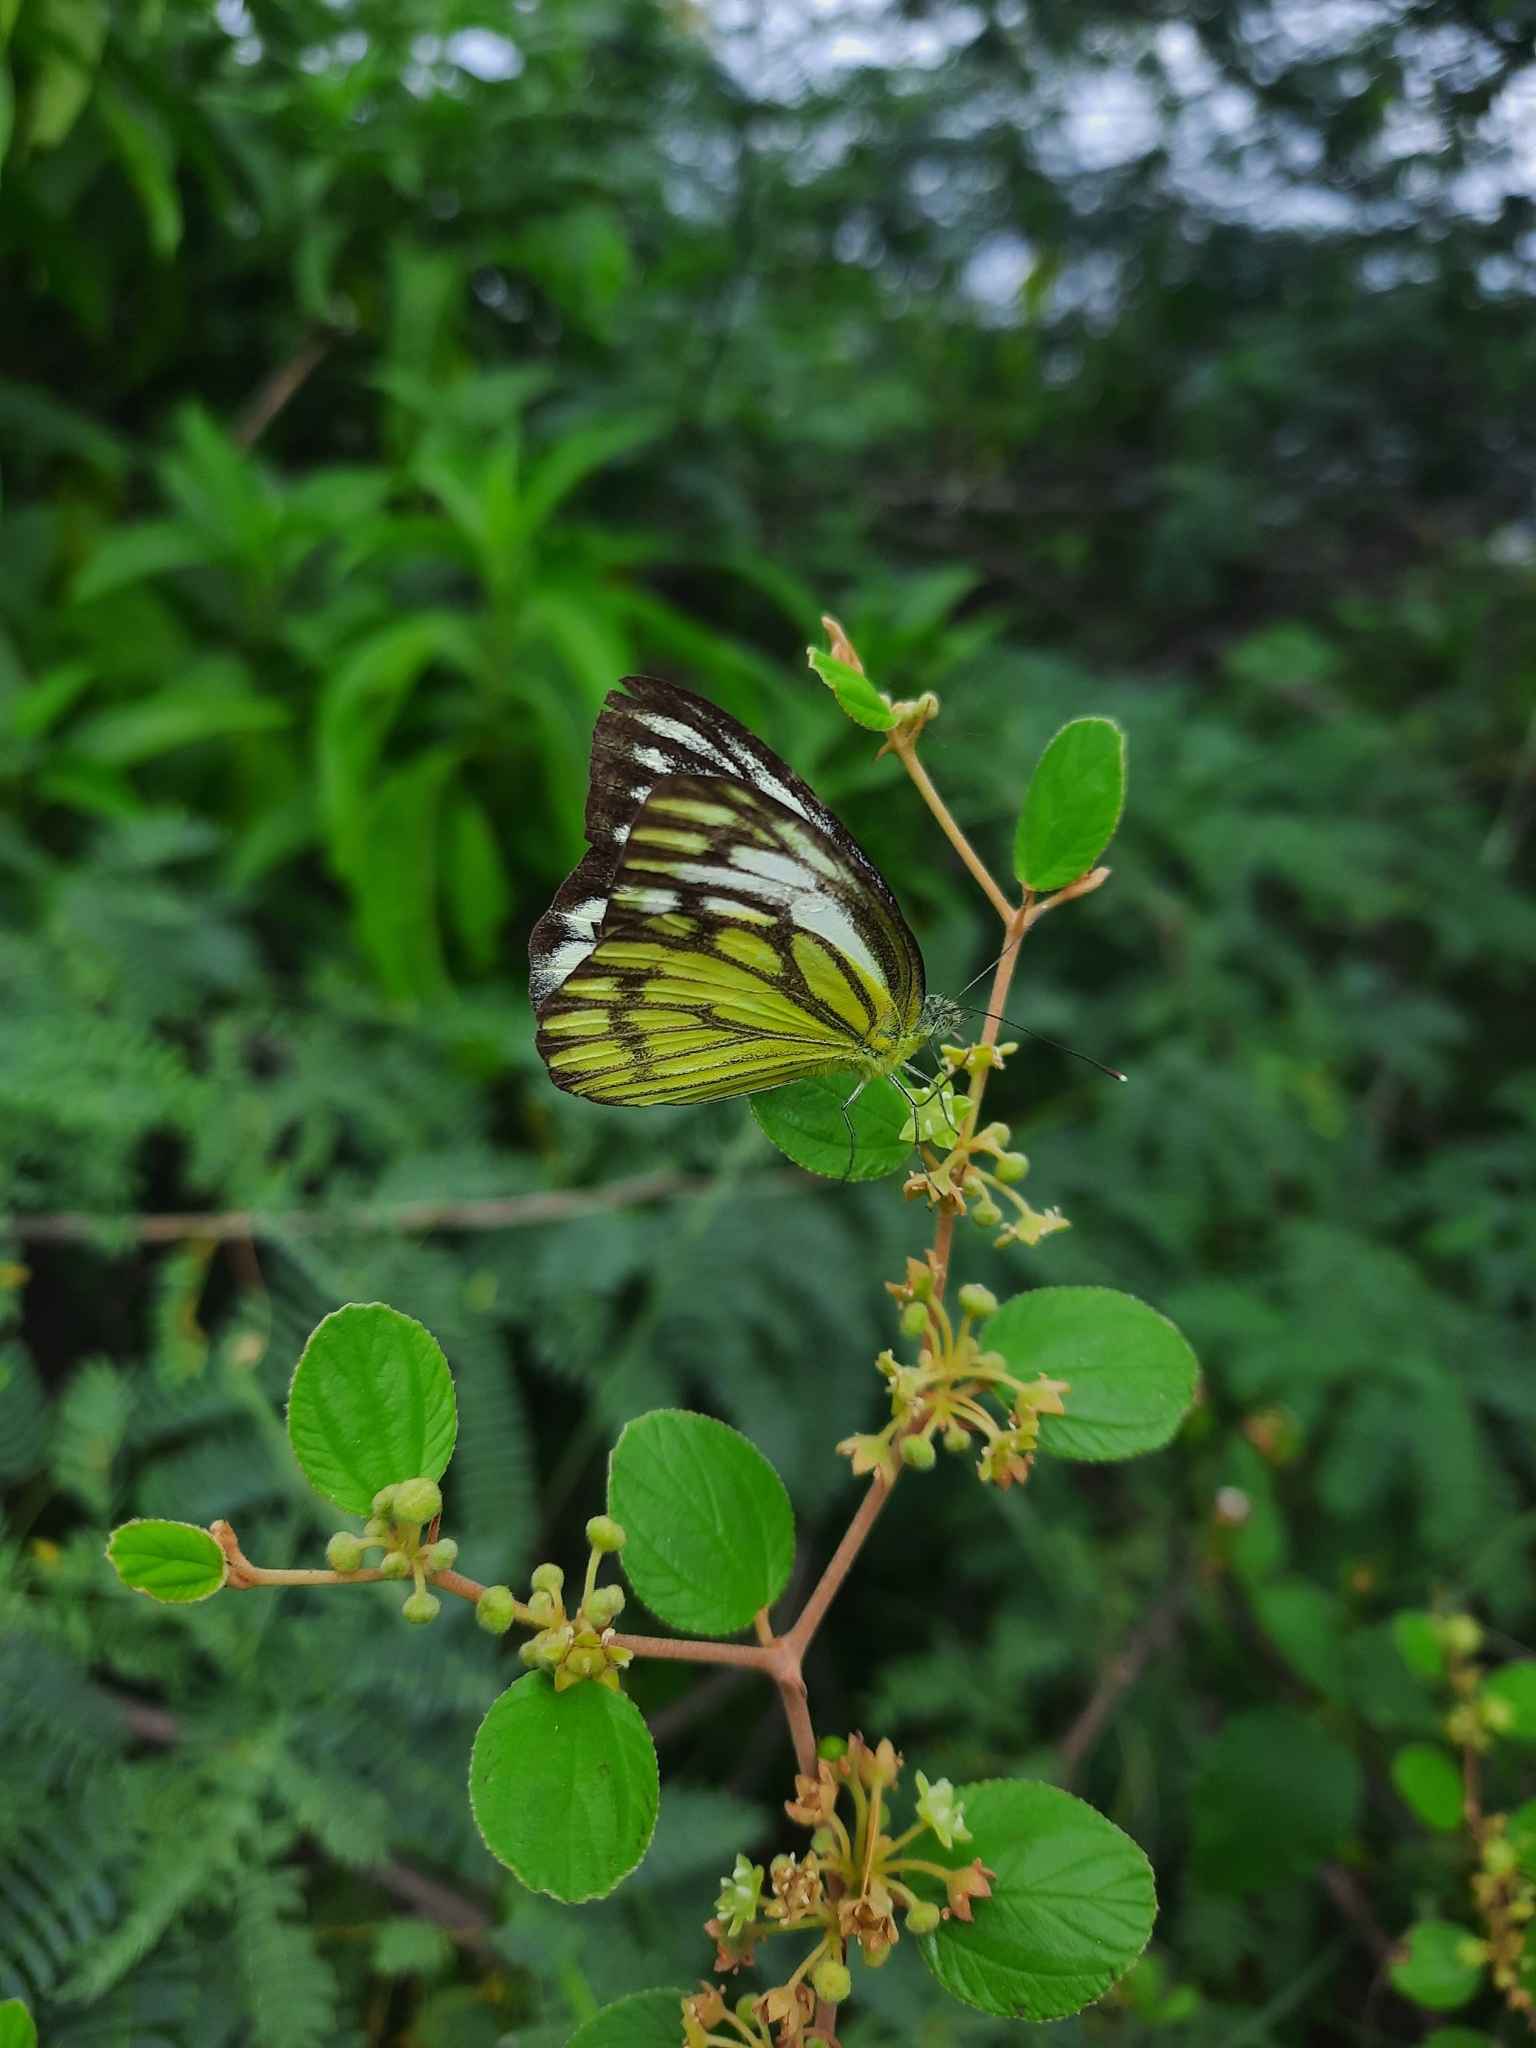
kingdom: Animalia
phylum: Arthropoda
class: Insecta
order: Lepidoptera
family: Pieridae
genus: Cepora
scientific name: Cepora nerissa
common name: Common gull
